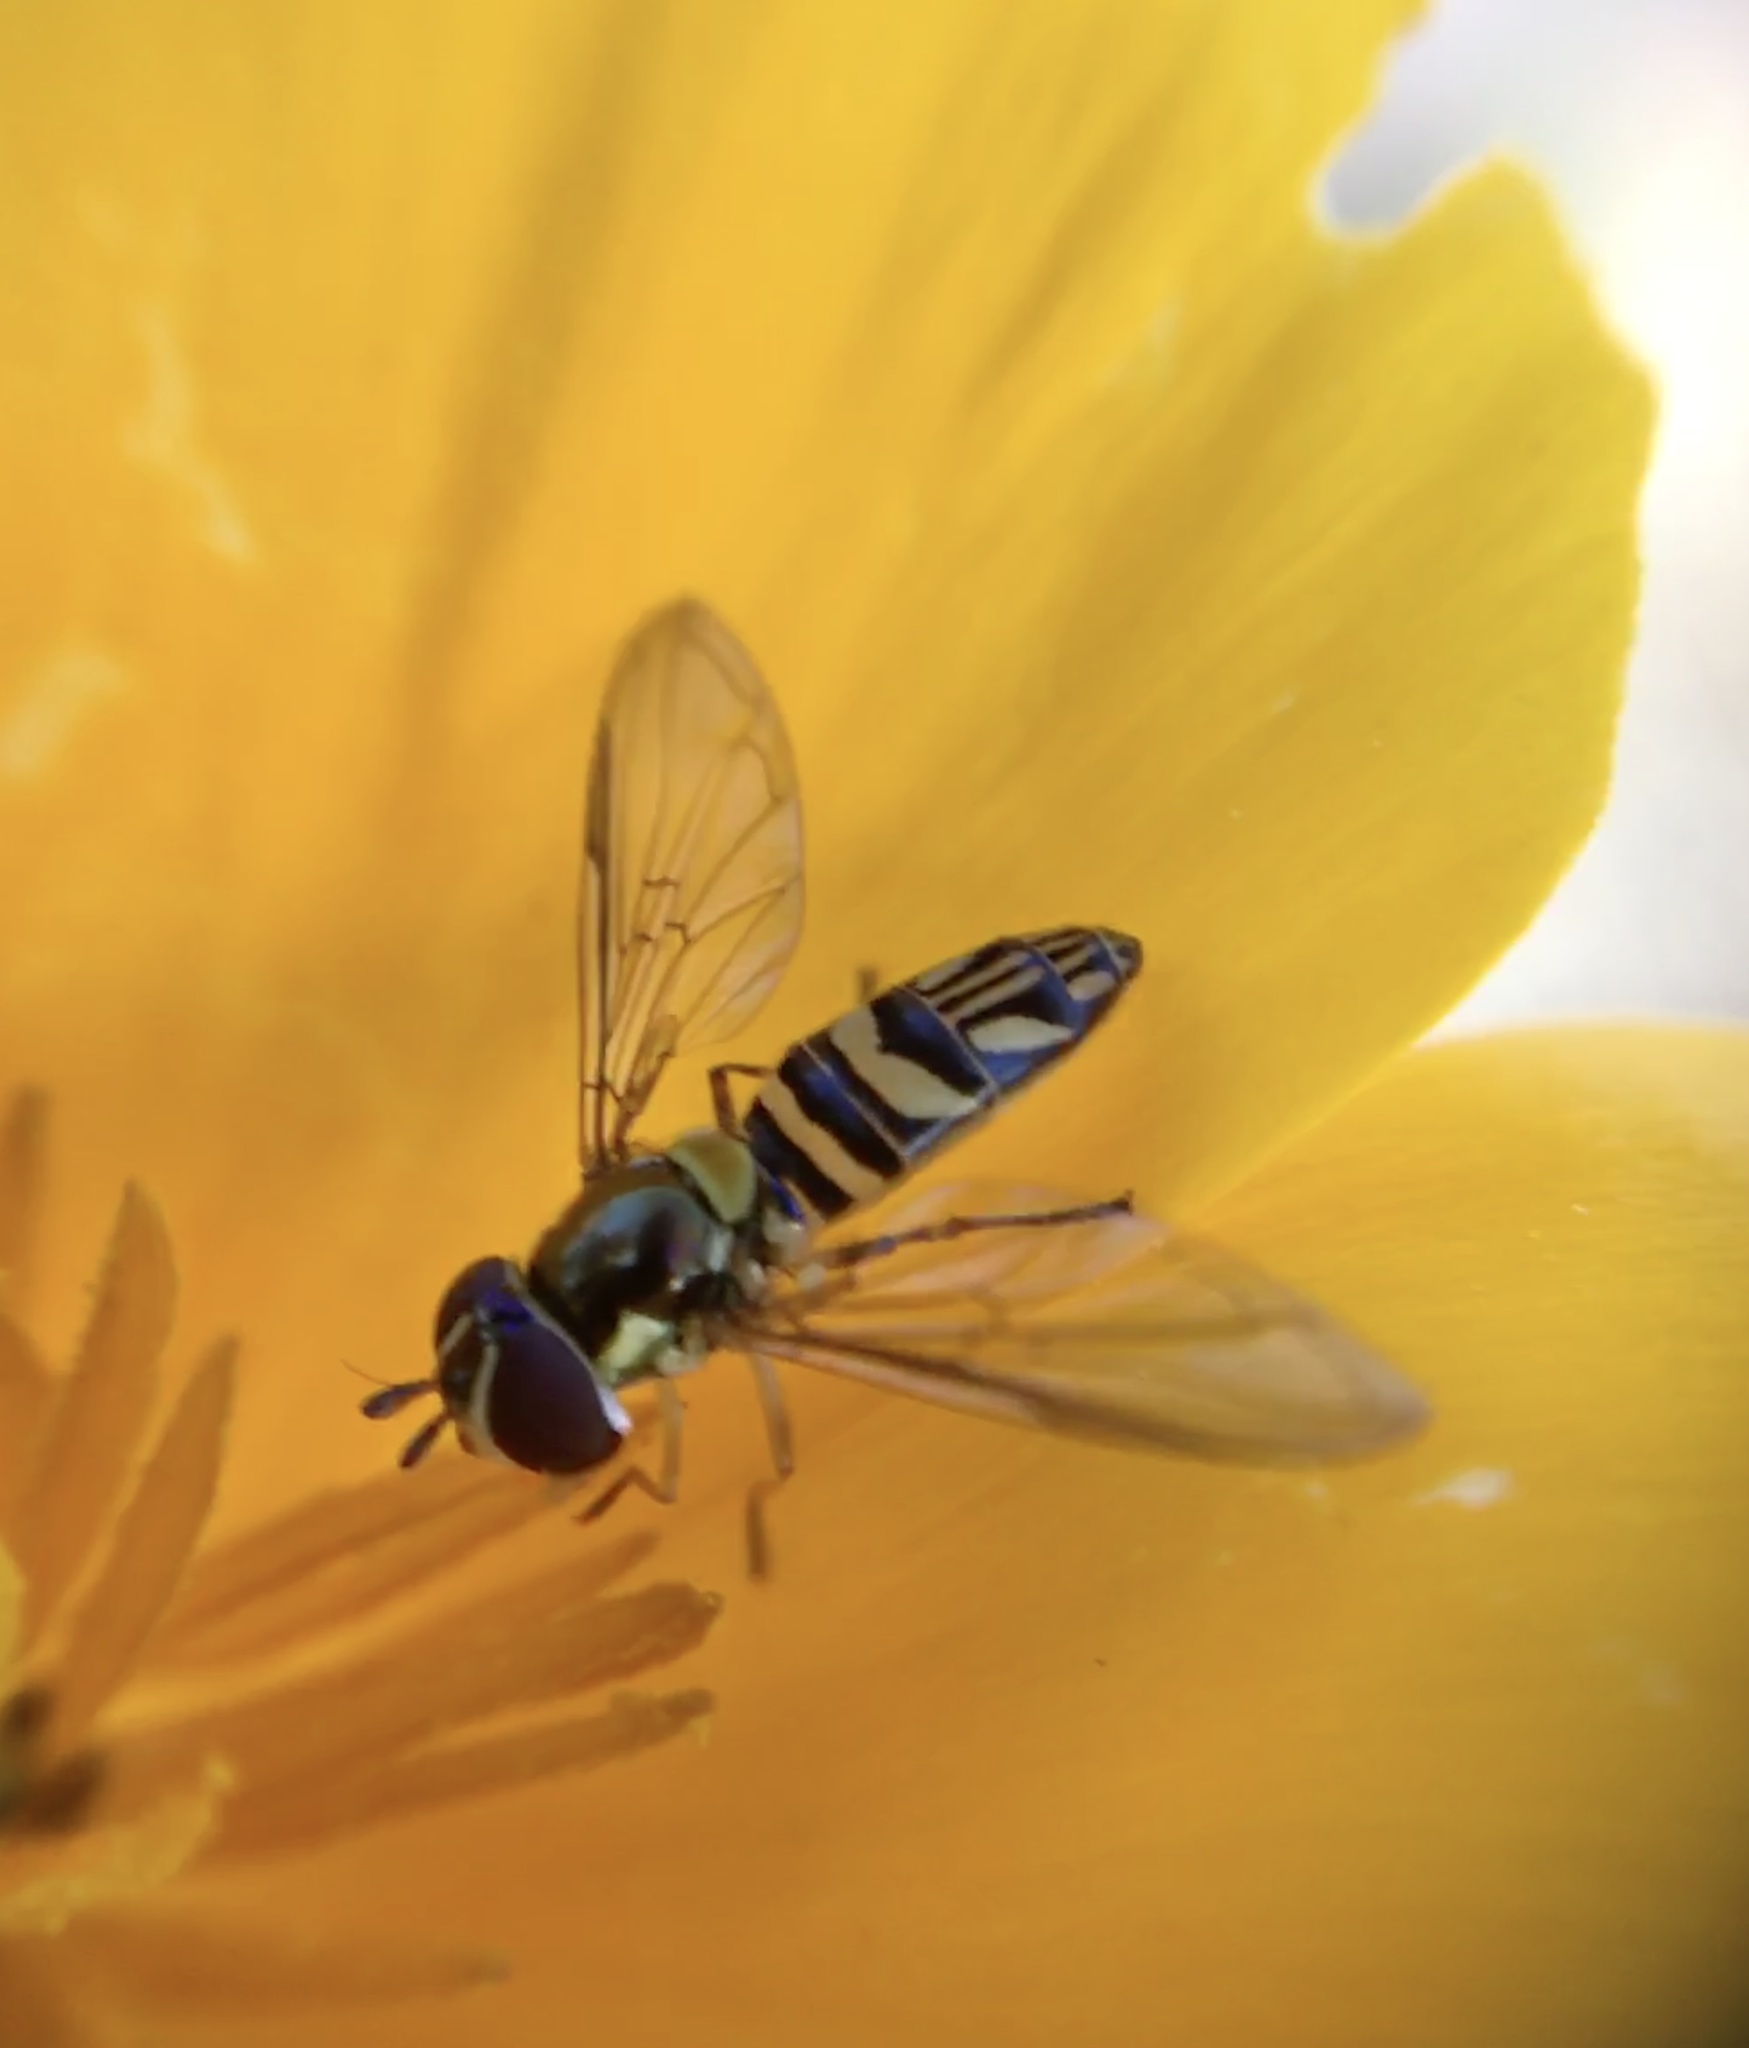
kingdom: Animalia
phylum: Arthropoda
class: Insecta
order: Diptera
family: Syrphidae
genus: Allograpta
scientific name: Allograpta obliqua
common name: Common oblique syrphid
